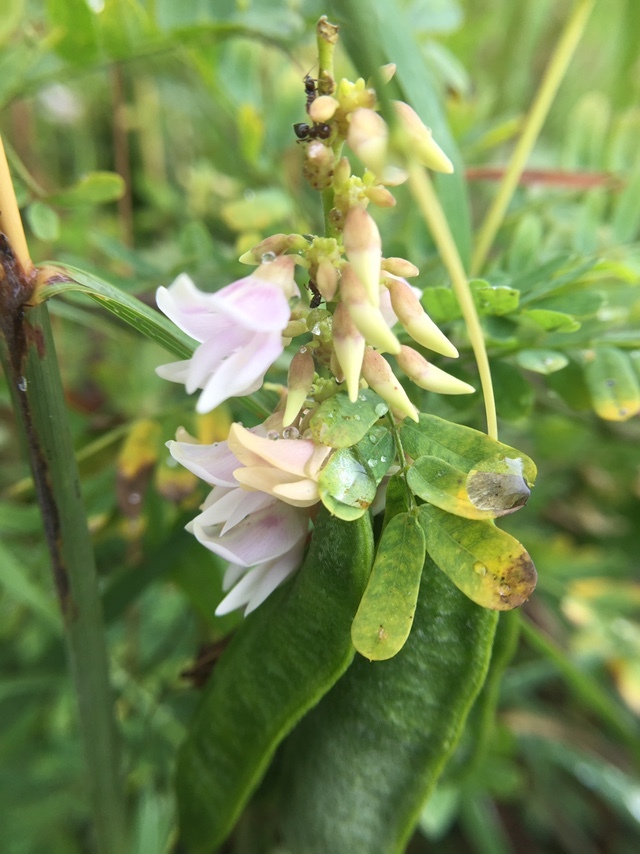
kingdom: Plantae
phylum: Tracheophyta
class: Magnoliopsida
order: Fabales
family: Fabaceae
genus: Abrus
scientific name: Abrus precatorius
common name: Rosarypea
